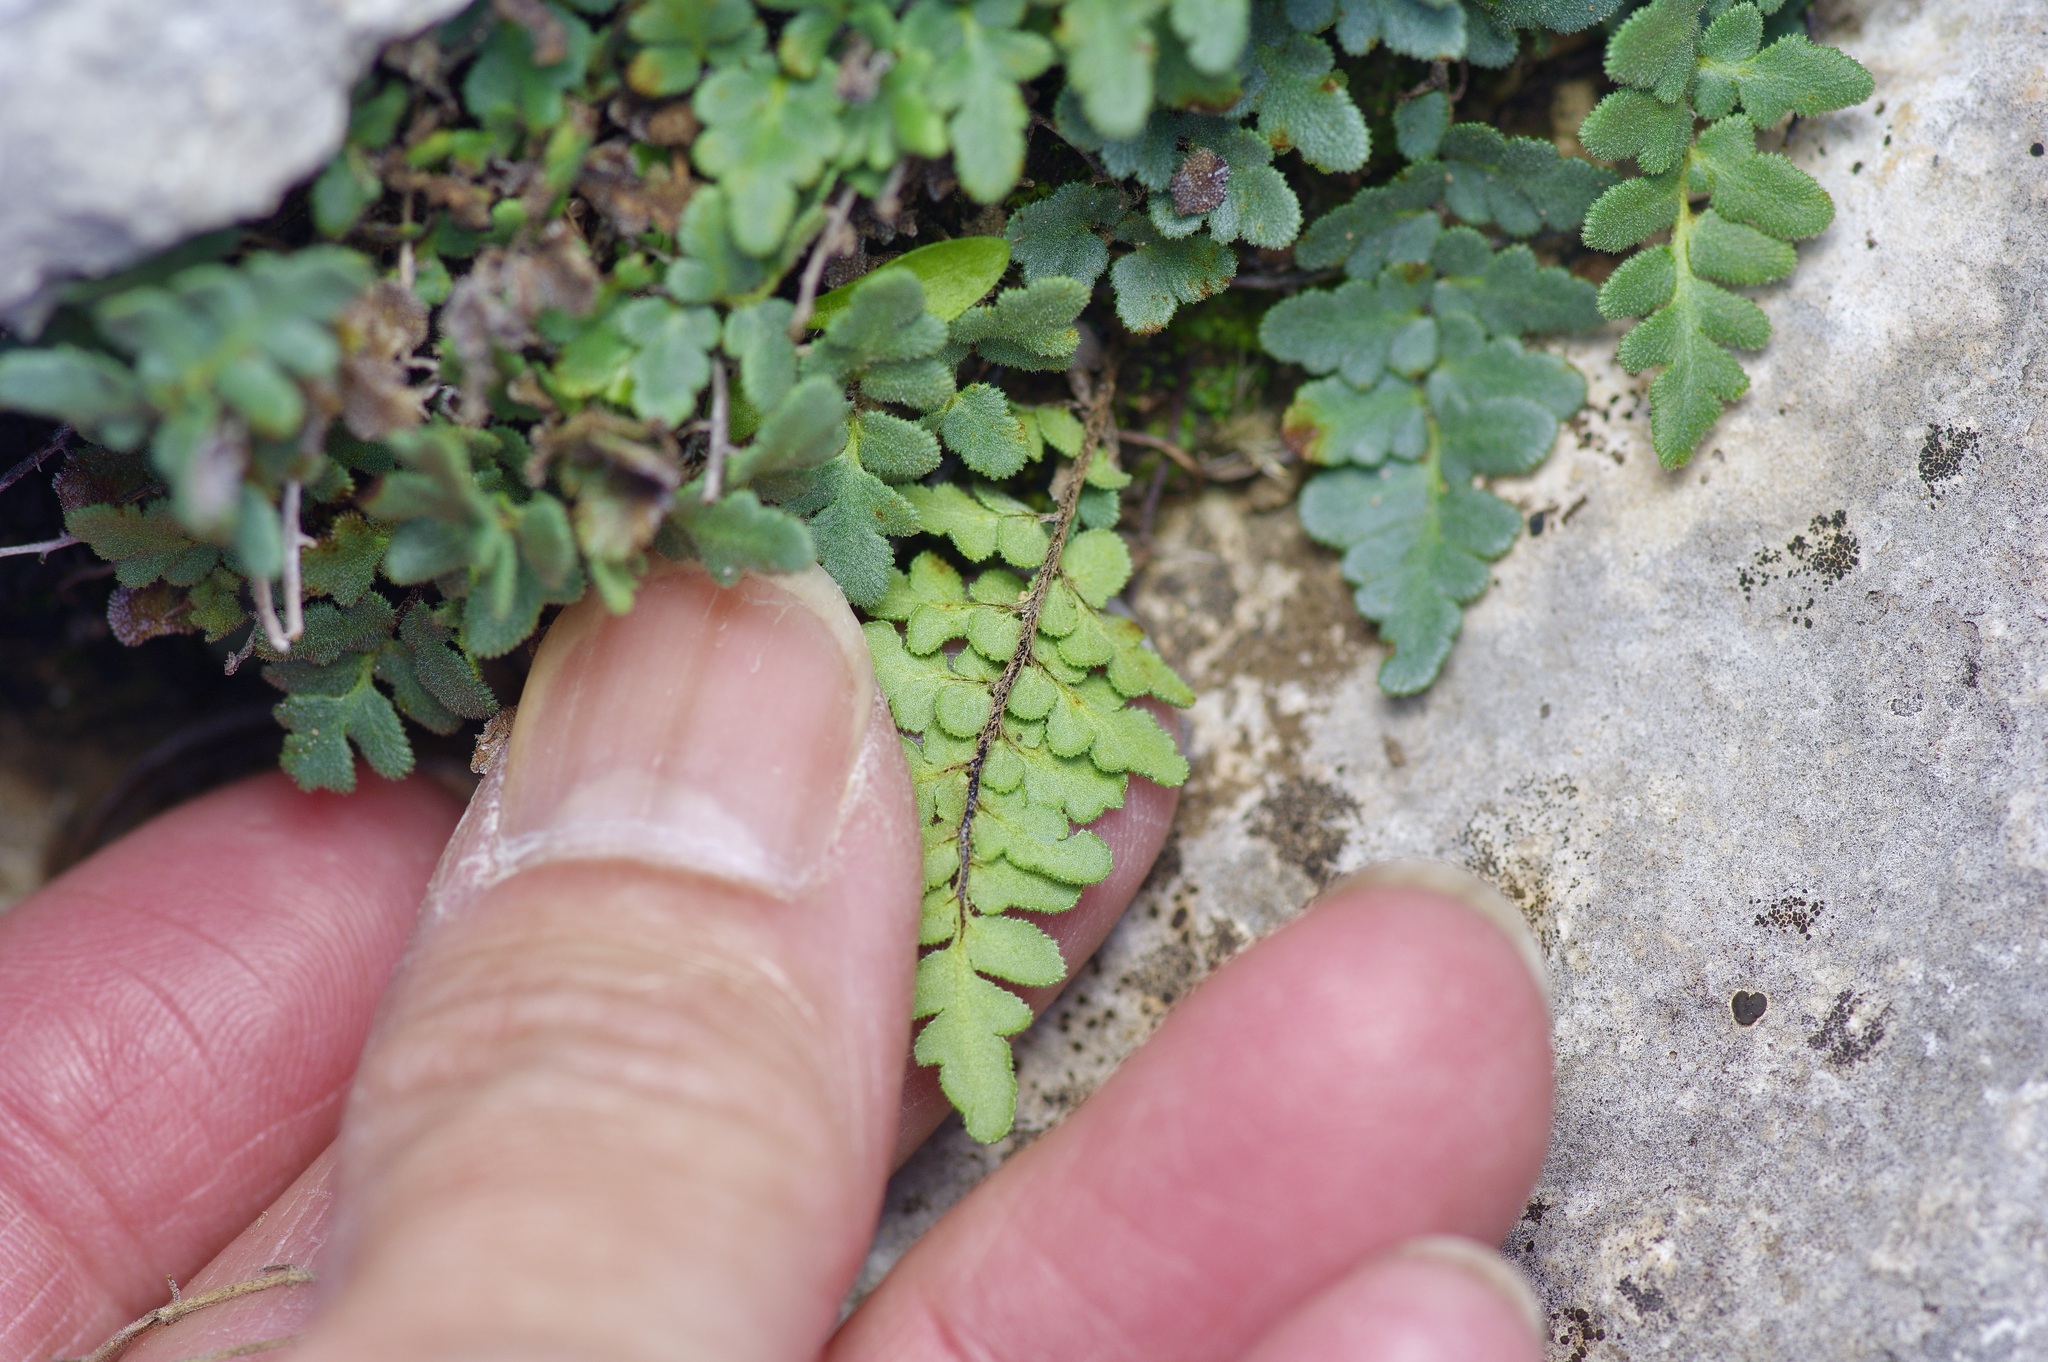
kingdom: Plantae
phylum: Tracheophyta
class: Polypodiopsida
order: Polypodiales
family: Pteridaceae
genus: Myriopteris
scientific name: Myriopteris scabra
